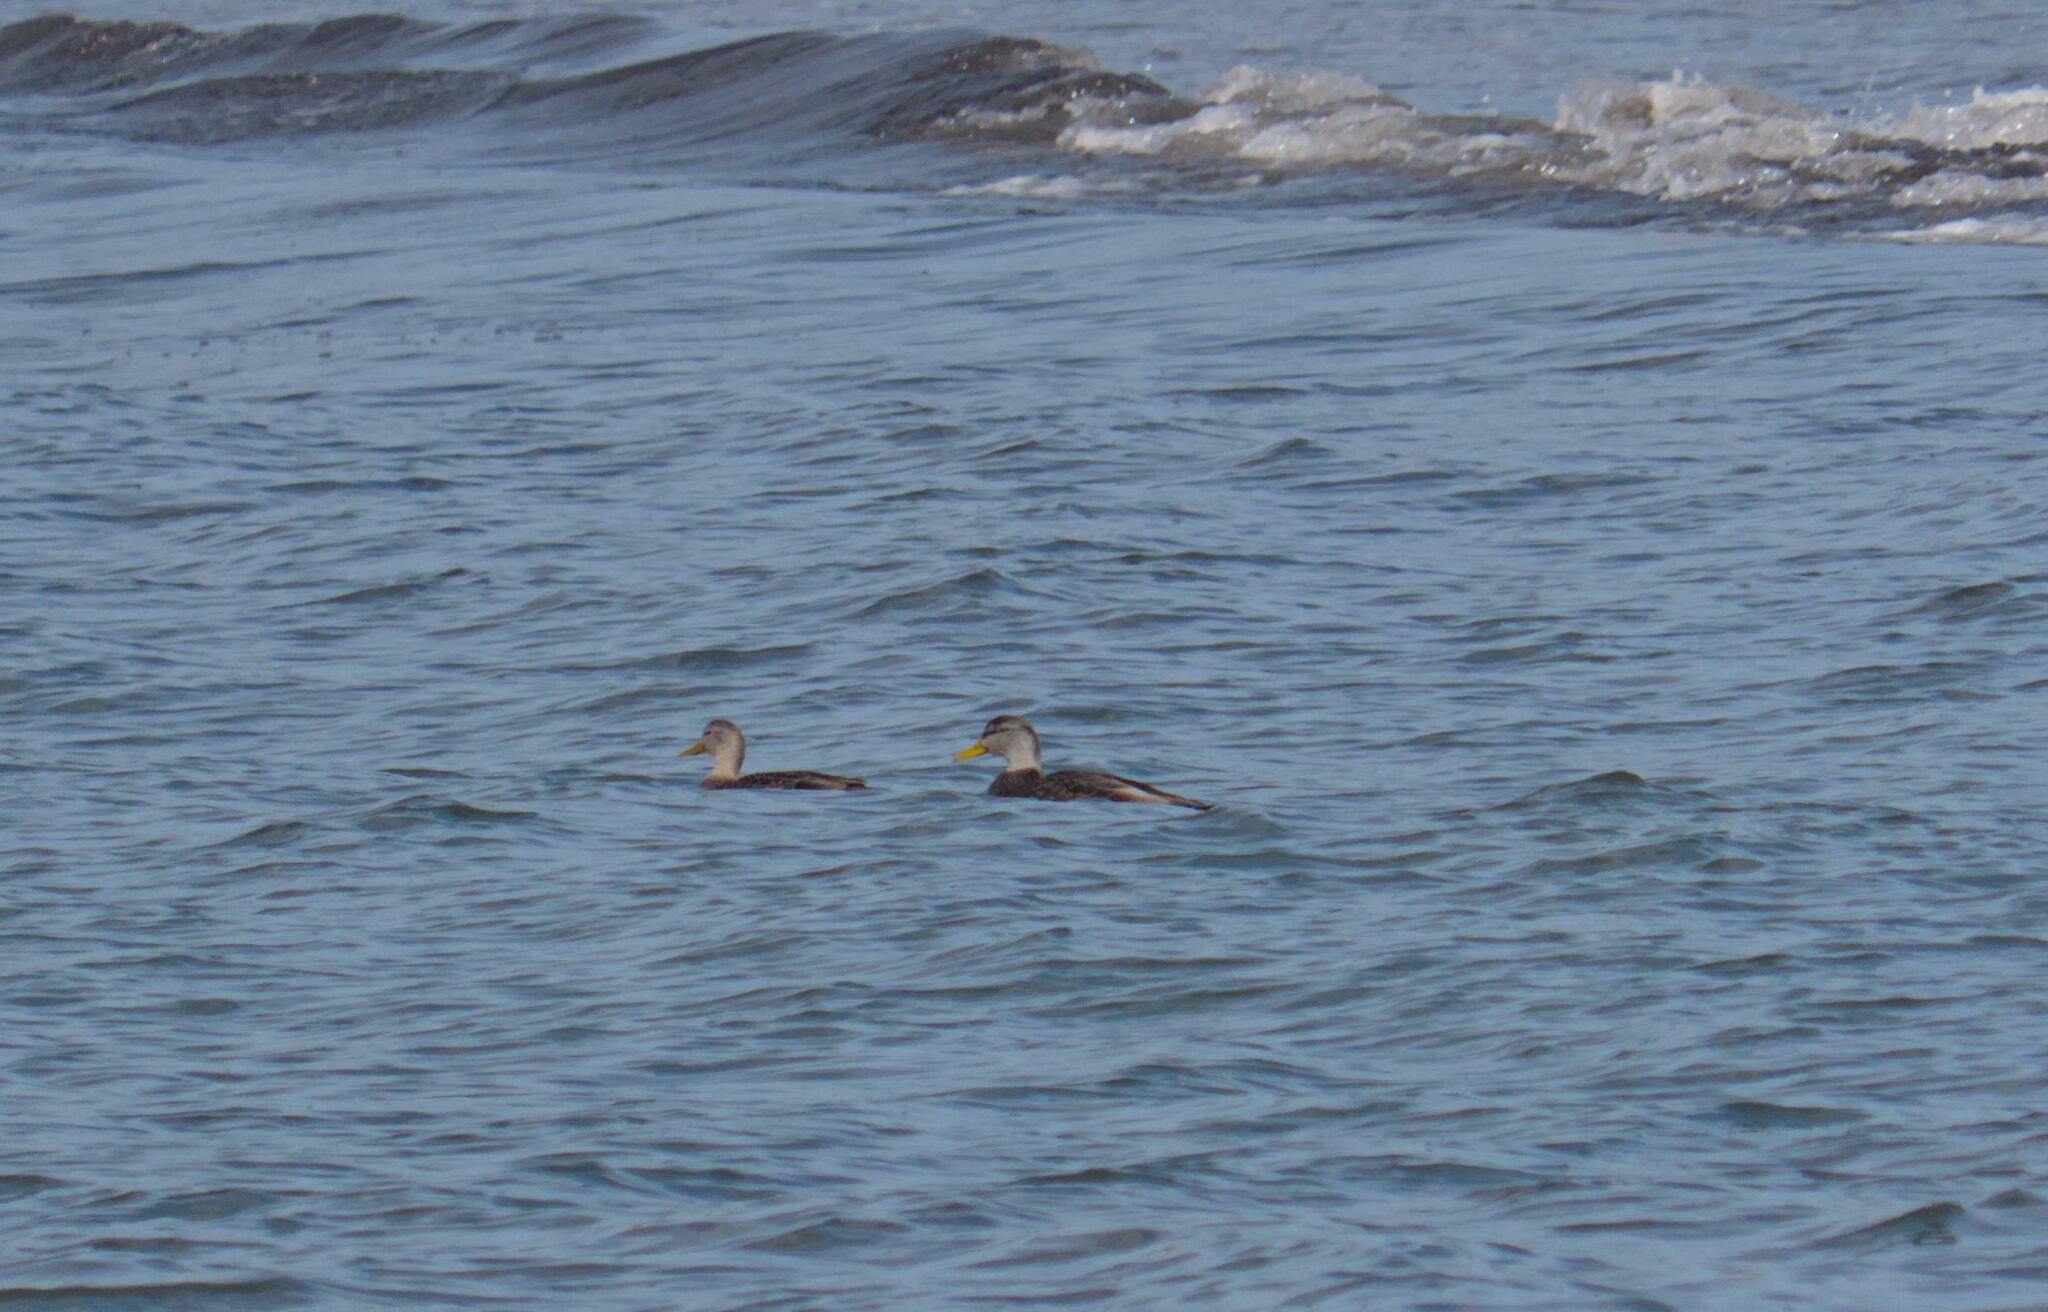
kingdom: Animalia
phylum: Chordata
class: Aves
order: Anseriformes
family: Anatidae
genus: Anas
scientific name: Anas rubripes
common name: American black duck
